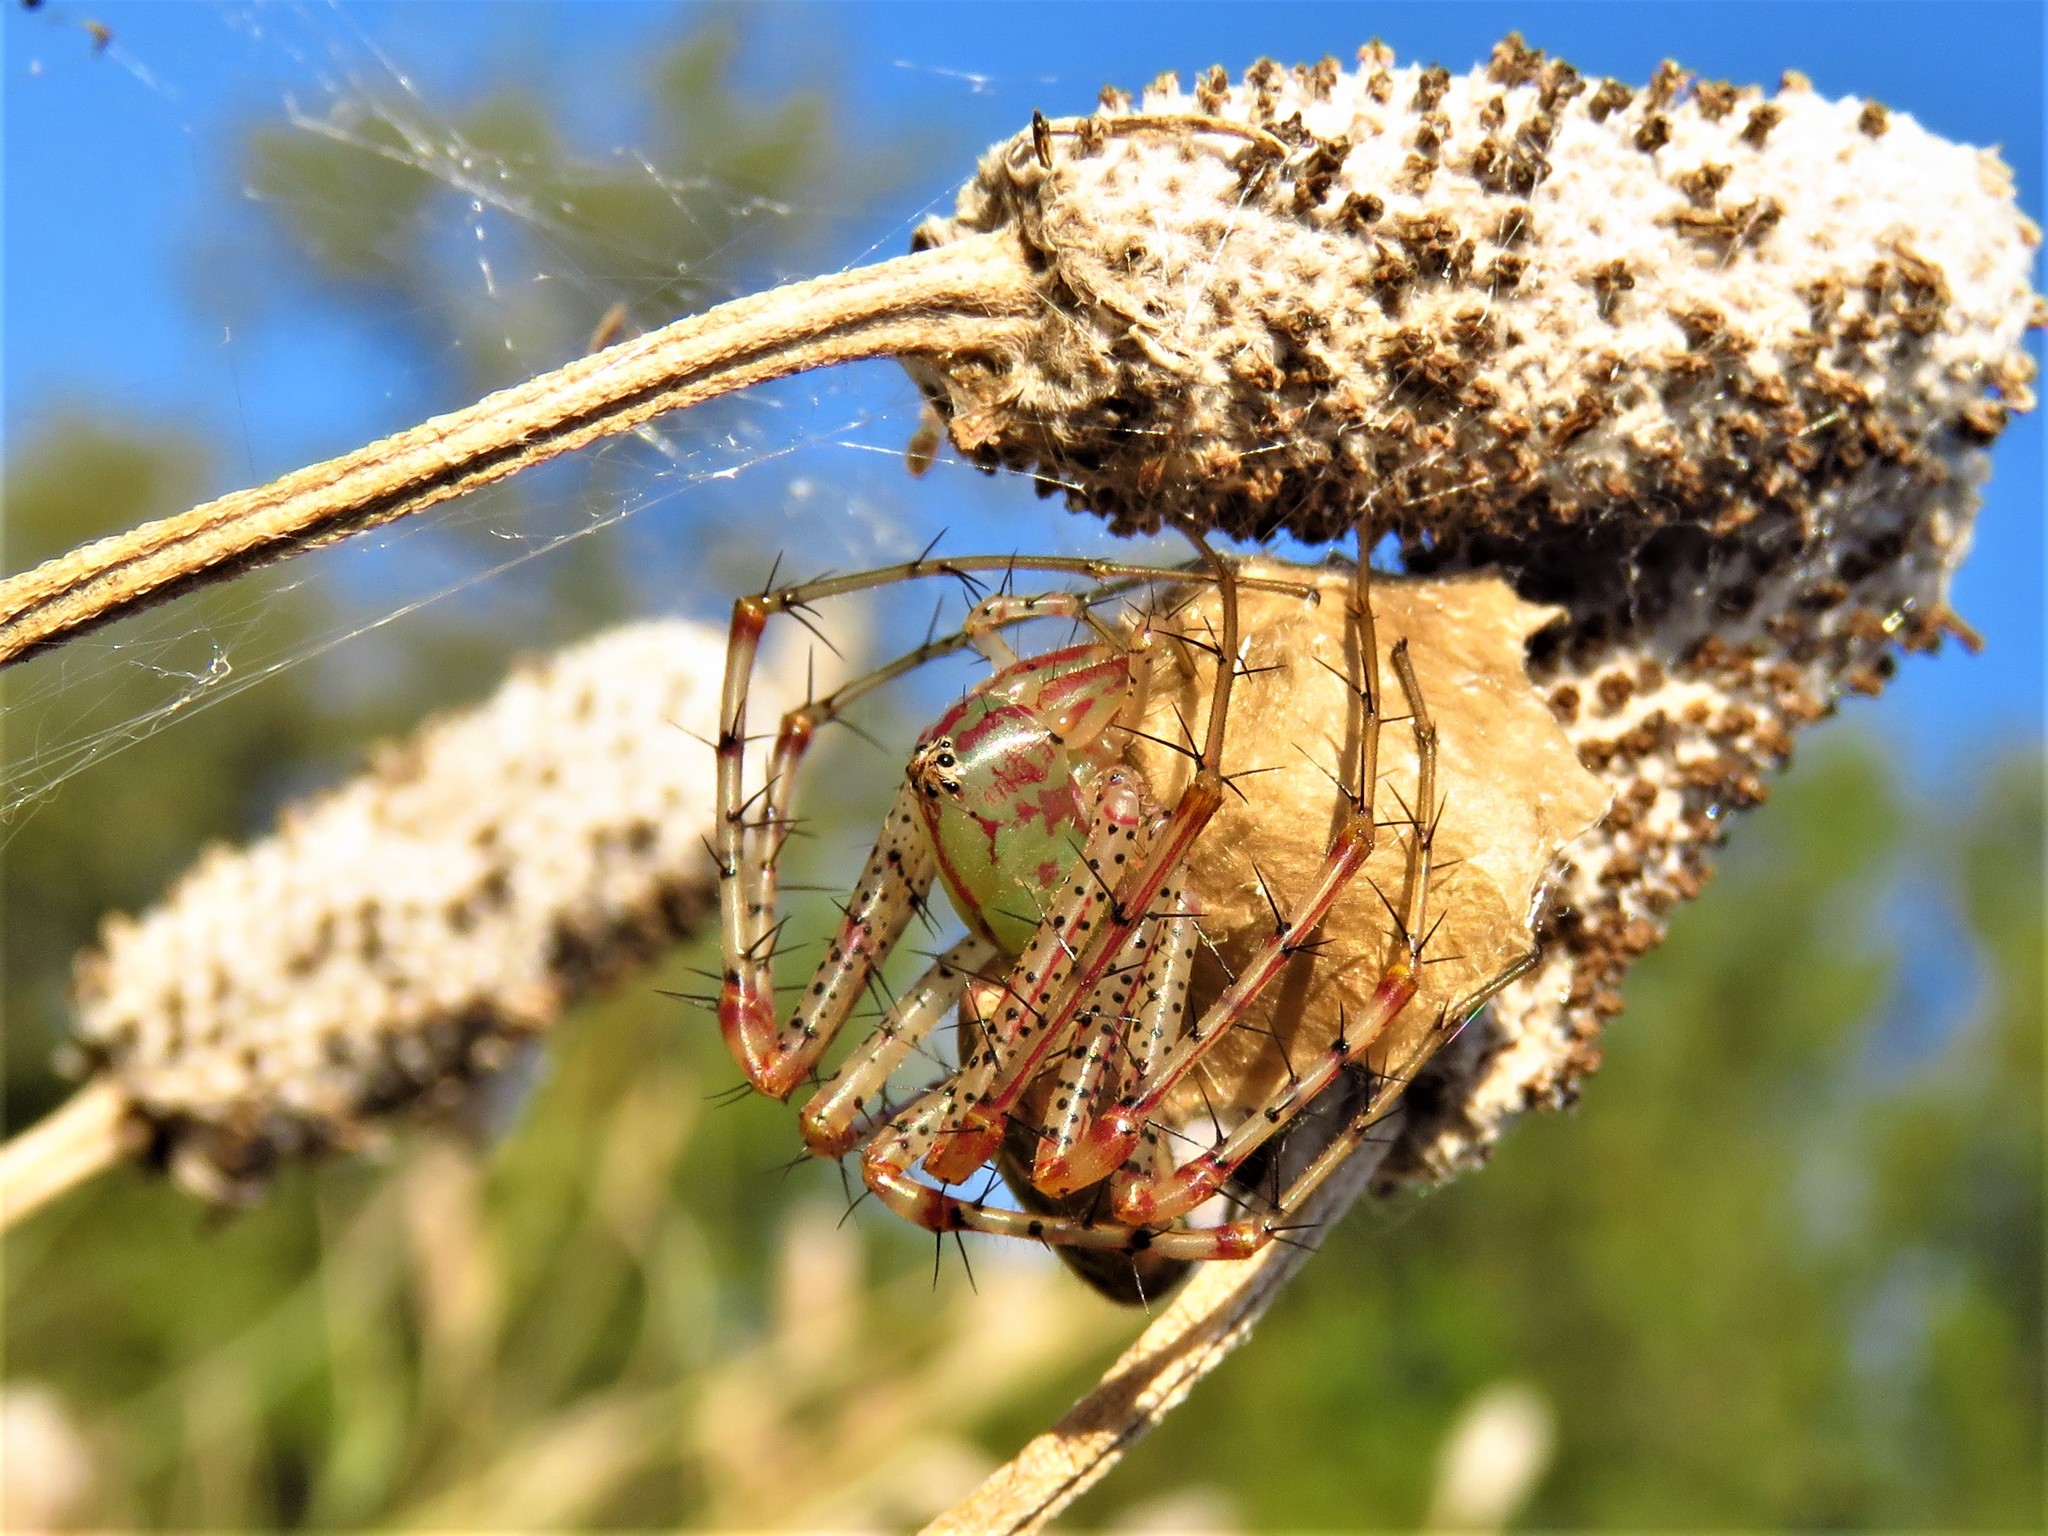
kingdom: Animalia
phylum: Arthropoda
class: Arachnida
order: Araneae
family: Oxyopidae
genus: Peucetia
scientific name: Peucetia viridans
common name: Lynx spiders
